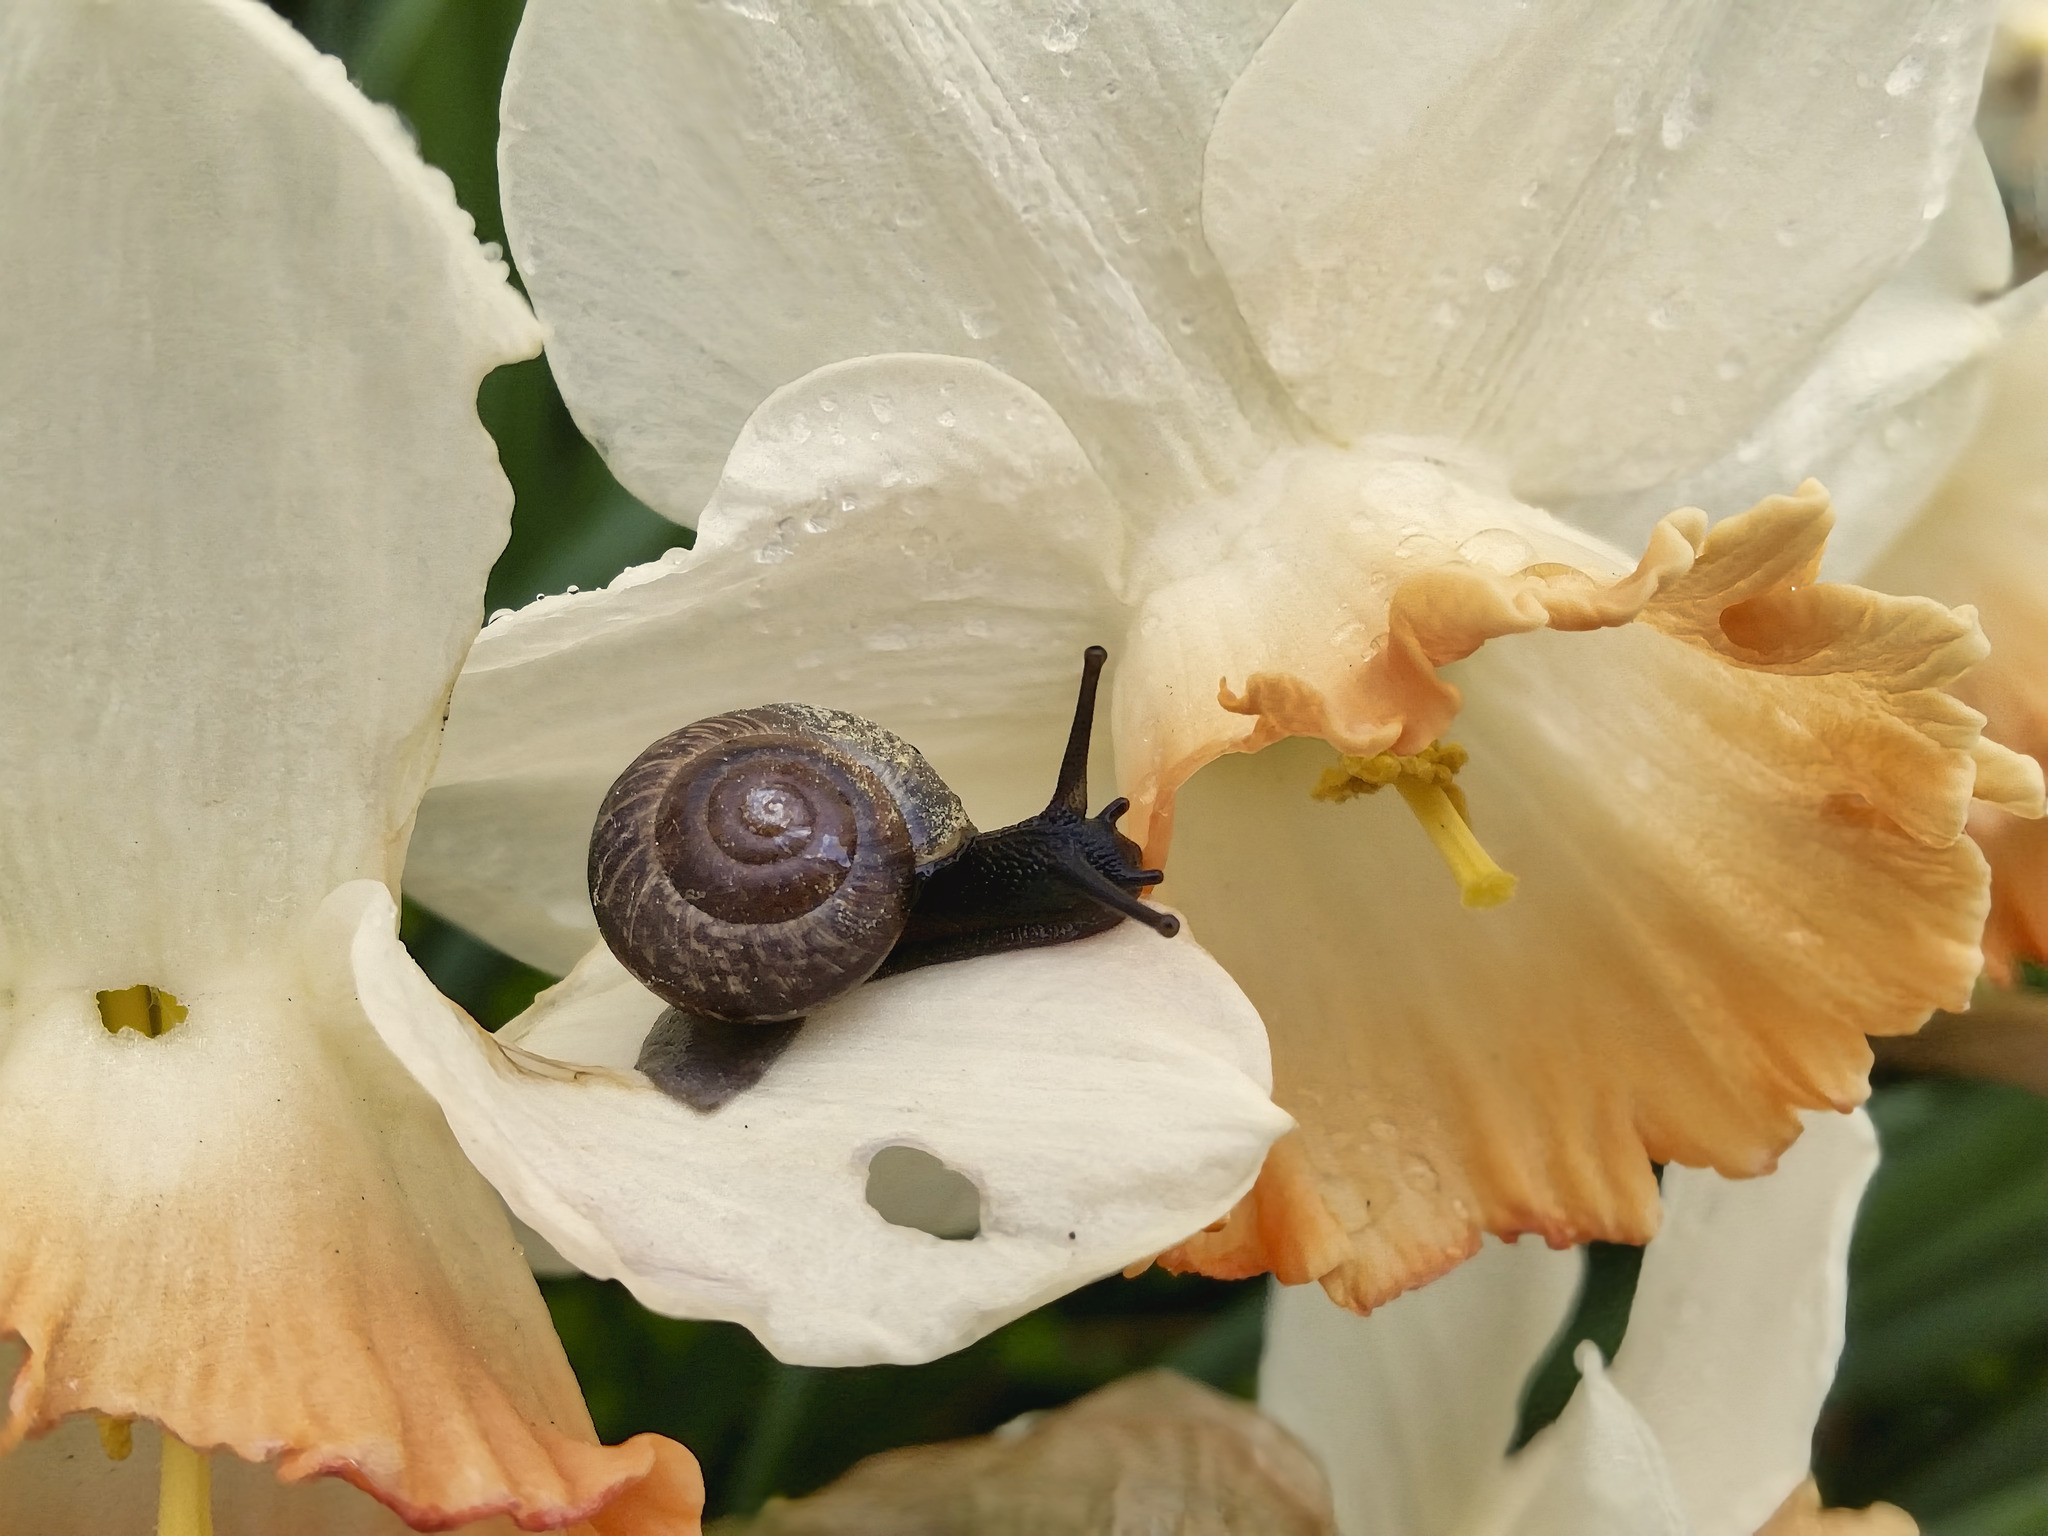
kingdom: Animalia
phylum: Mollusca
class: Gastropoda
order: Stylommatophora
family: Helicidae
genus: Arianta
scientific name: Arianta arbustorum
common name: Copse snail
